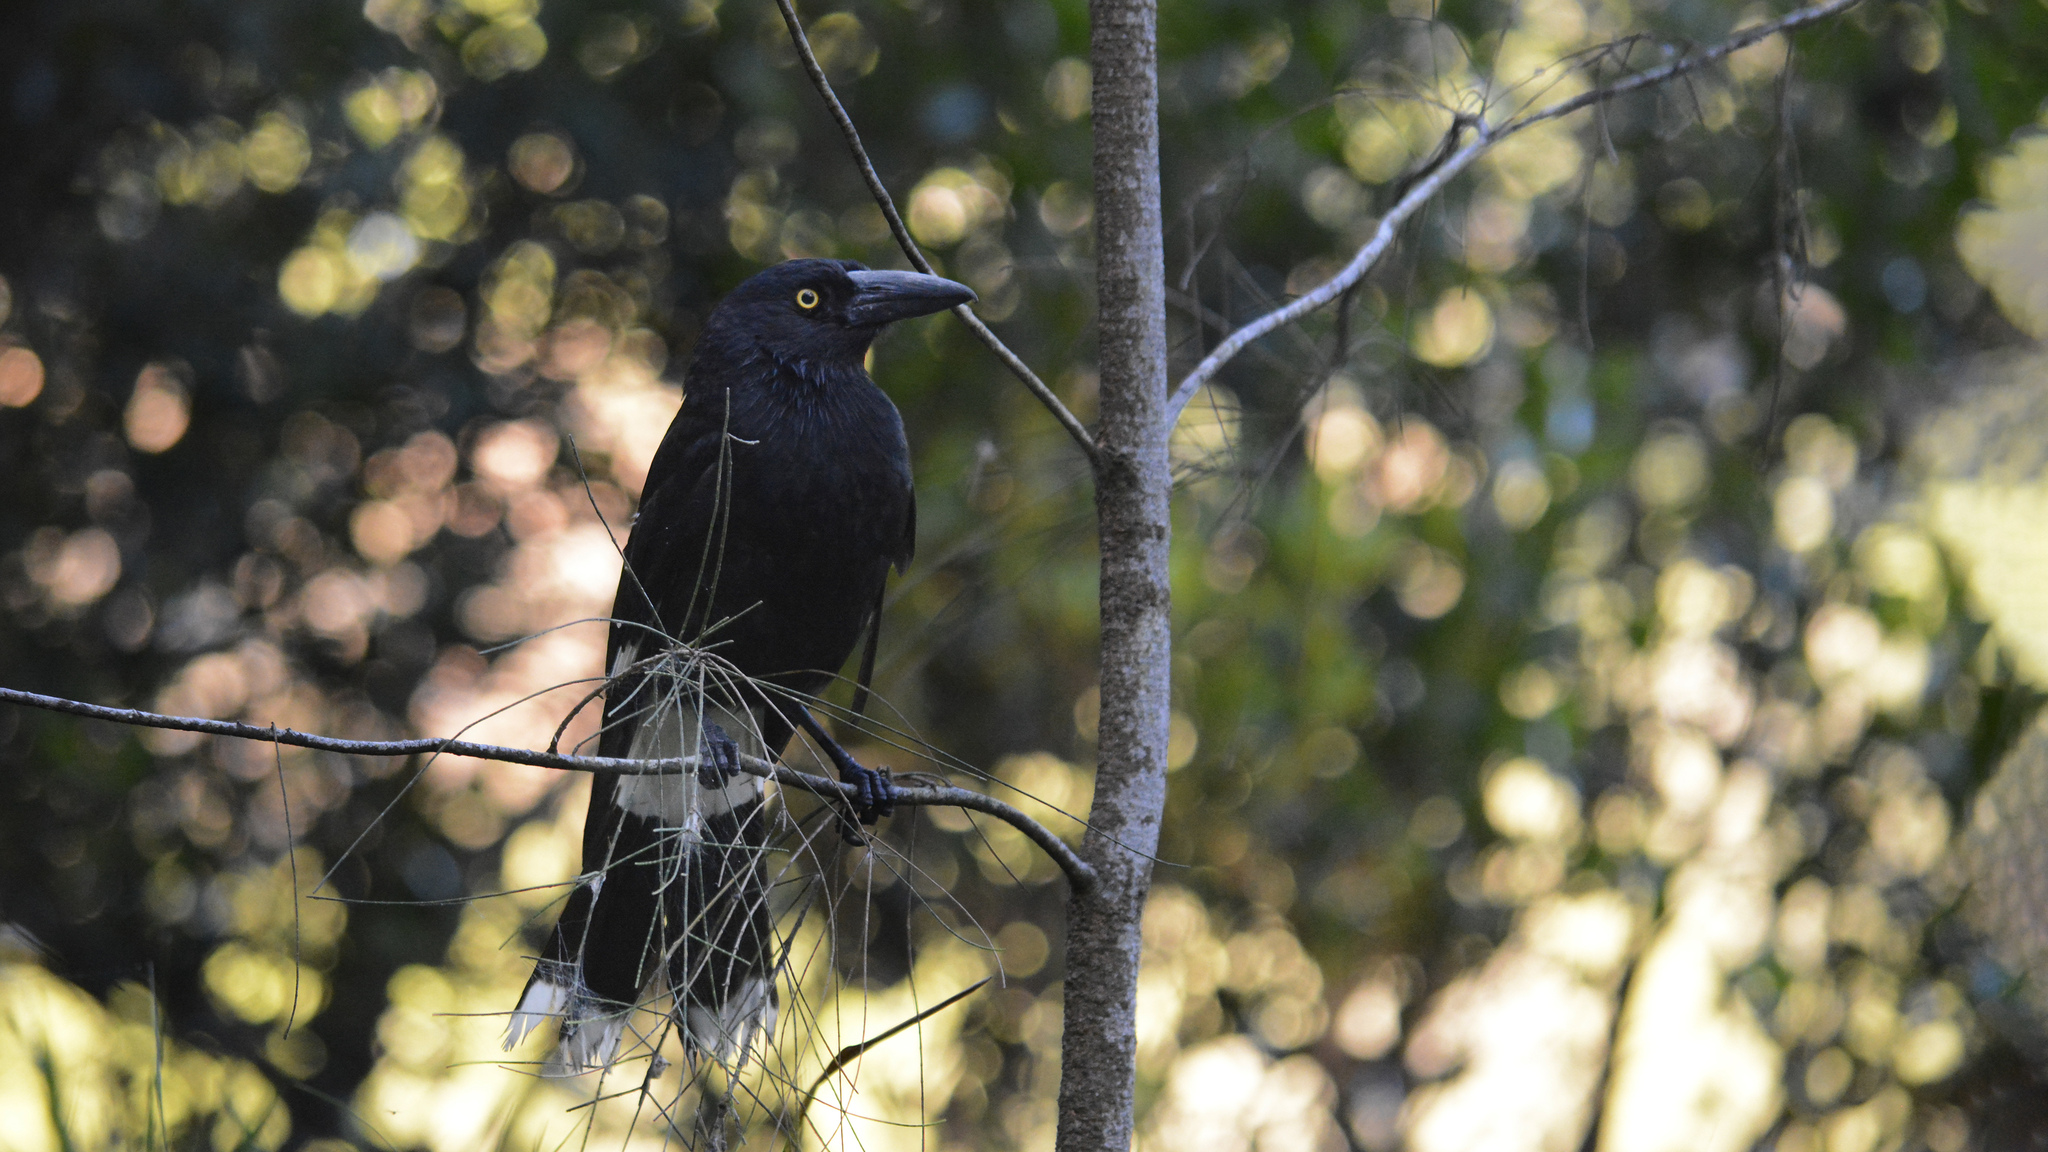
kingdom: Animalia
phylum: Chordata
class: Aves
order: Passeriformes
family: Cracticidae
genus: Strepera
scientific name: Strepera graculina
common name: Pied currawong
